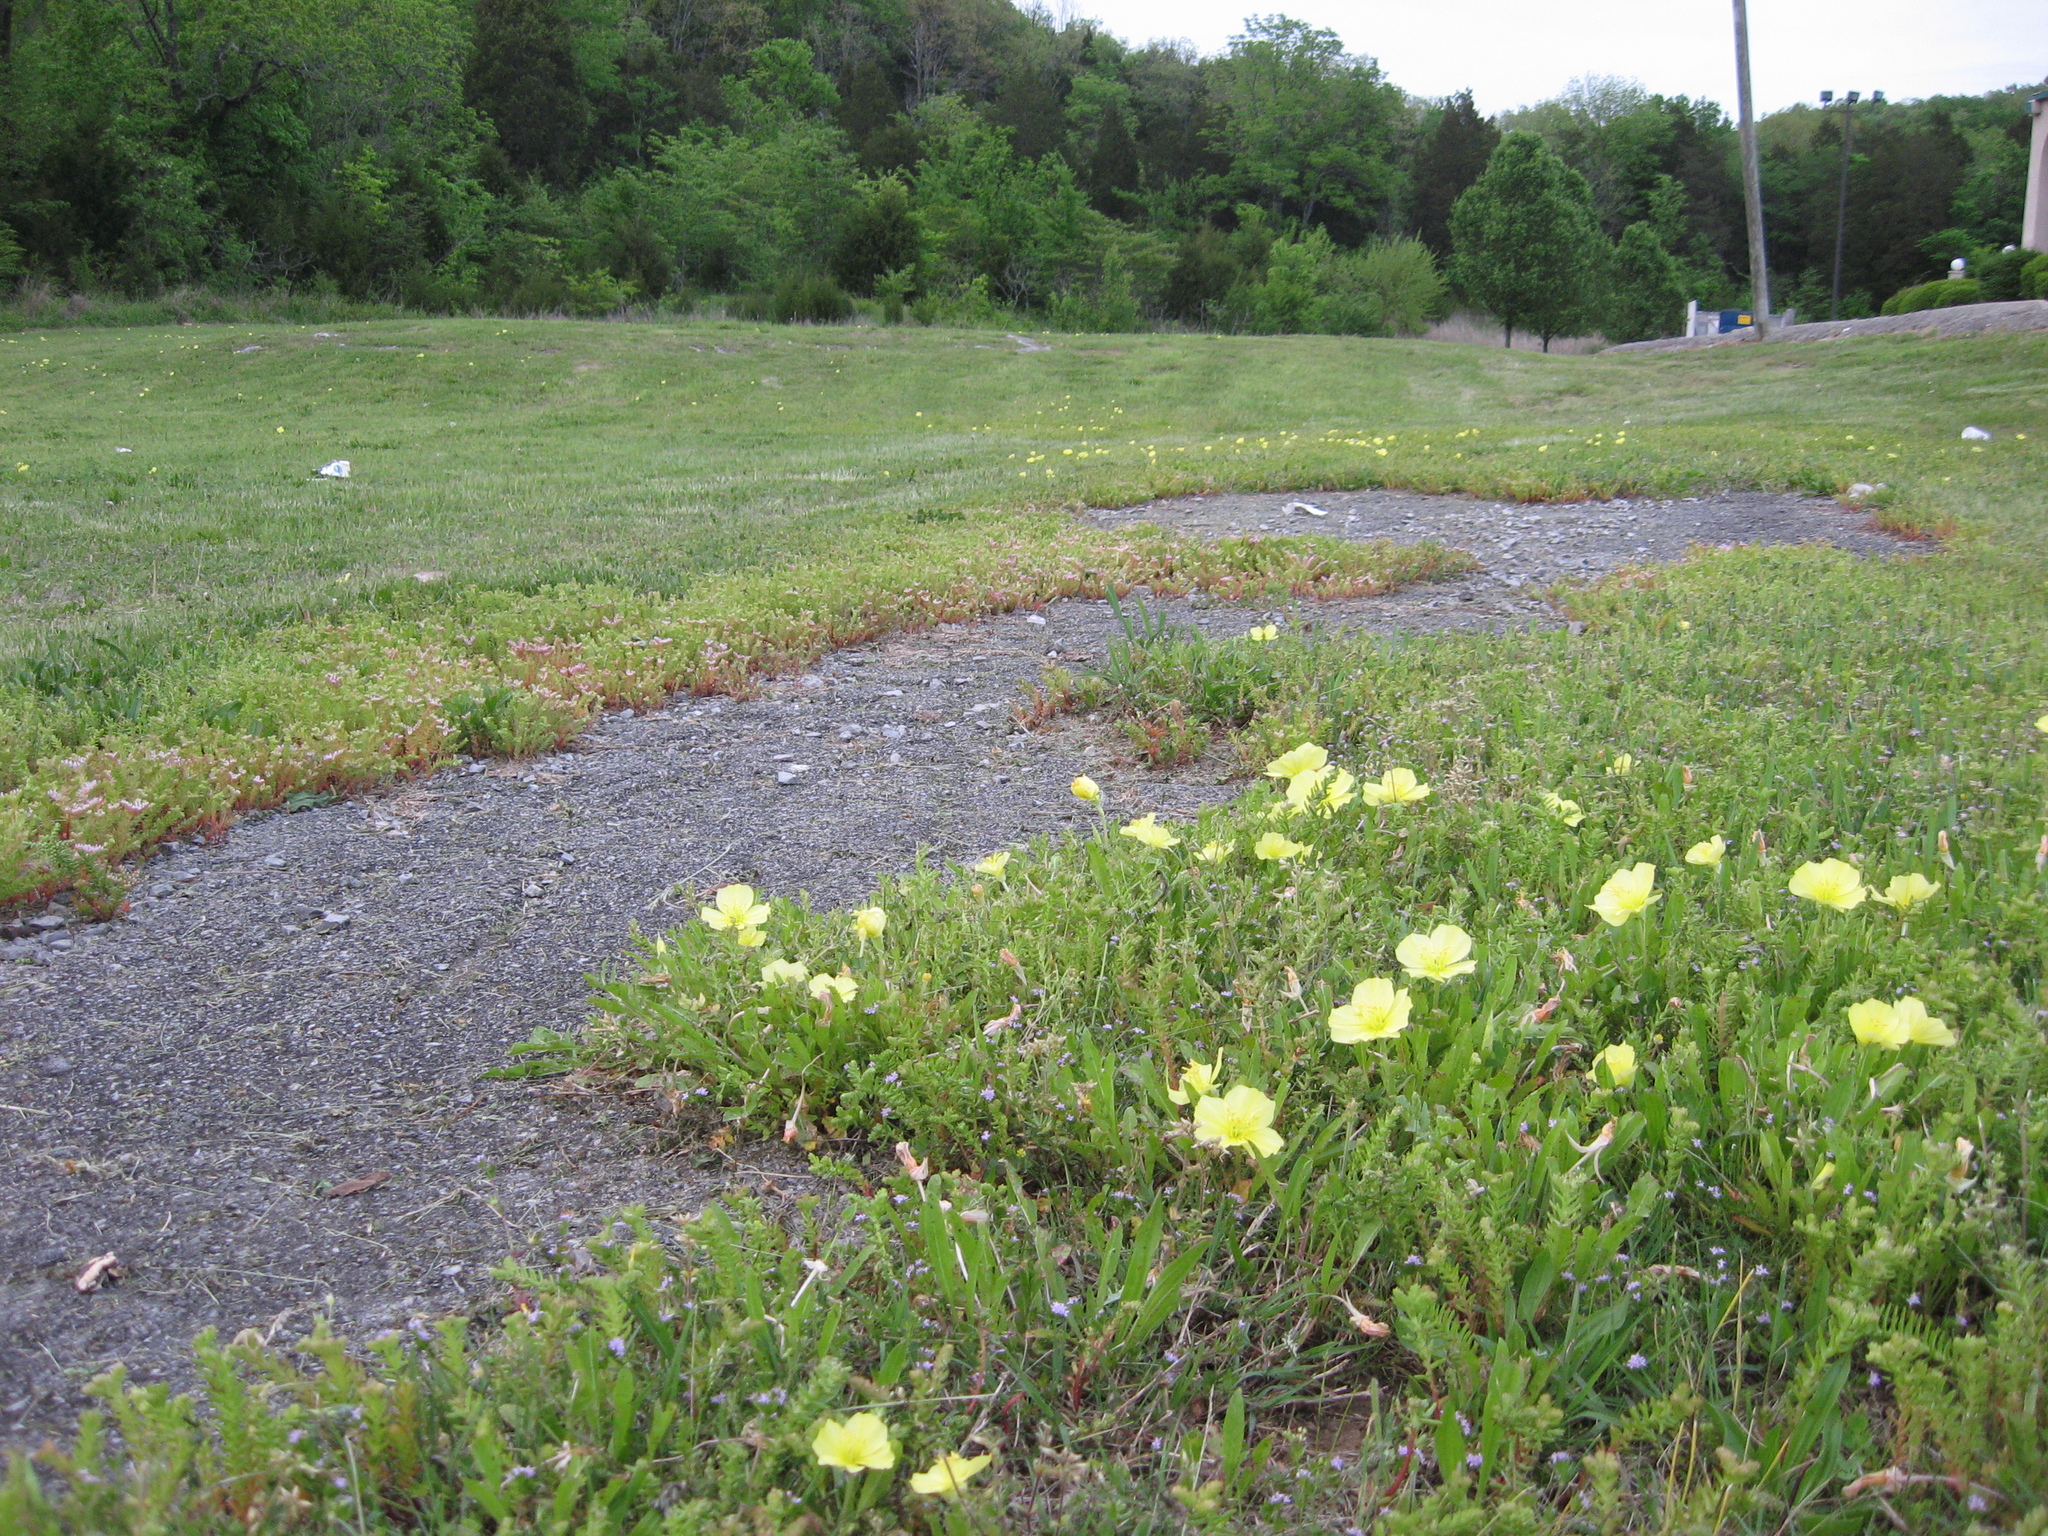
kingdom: Plantae
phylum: Tracheophyta
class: Magnoliopsida
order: Myrtales
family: Onagraceae
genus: Oenothera
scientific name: Oenothera triloba
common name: Sessile evening-primrose
